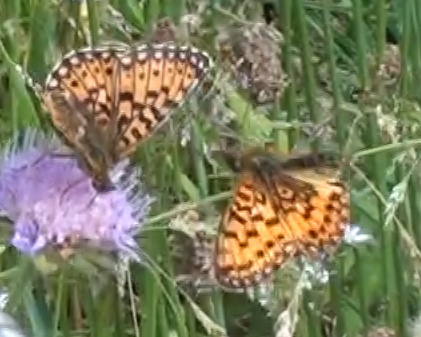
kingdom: Animalia
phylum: Arthropoda
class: Insecta
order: Lepidoptera
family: Nymphalidae
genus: Boloria
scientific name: Boloria selene
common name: Small pearl-bordered fritillary
